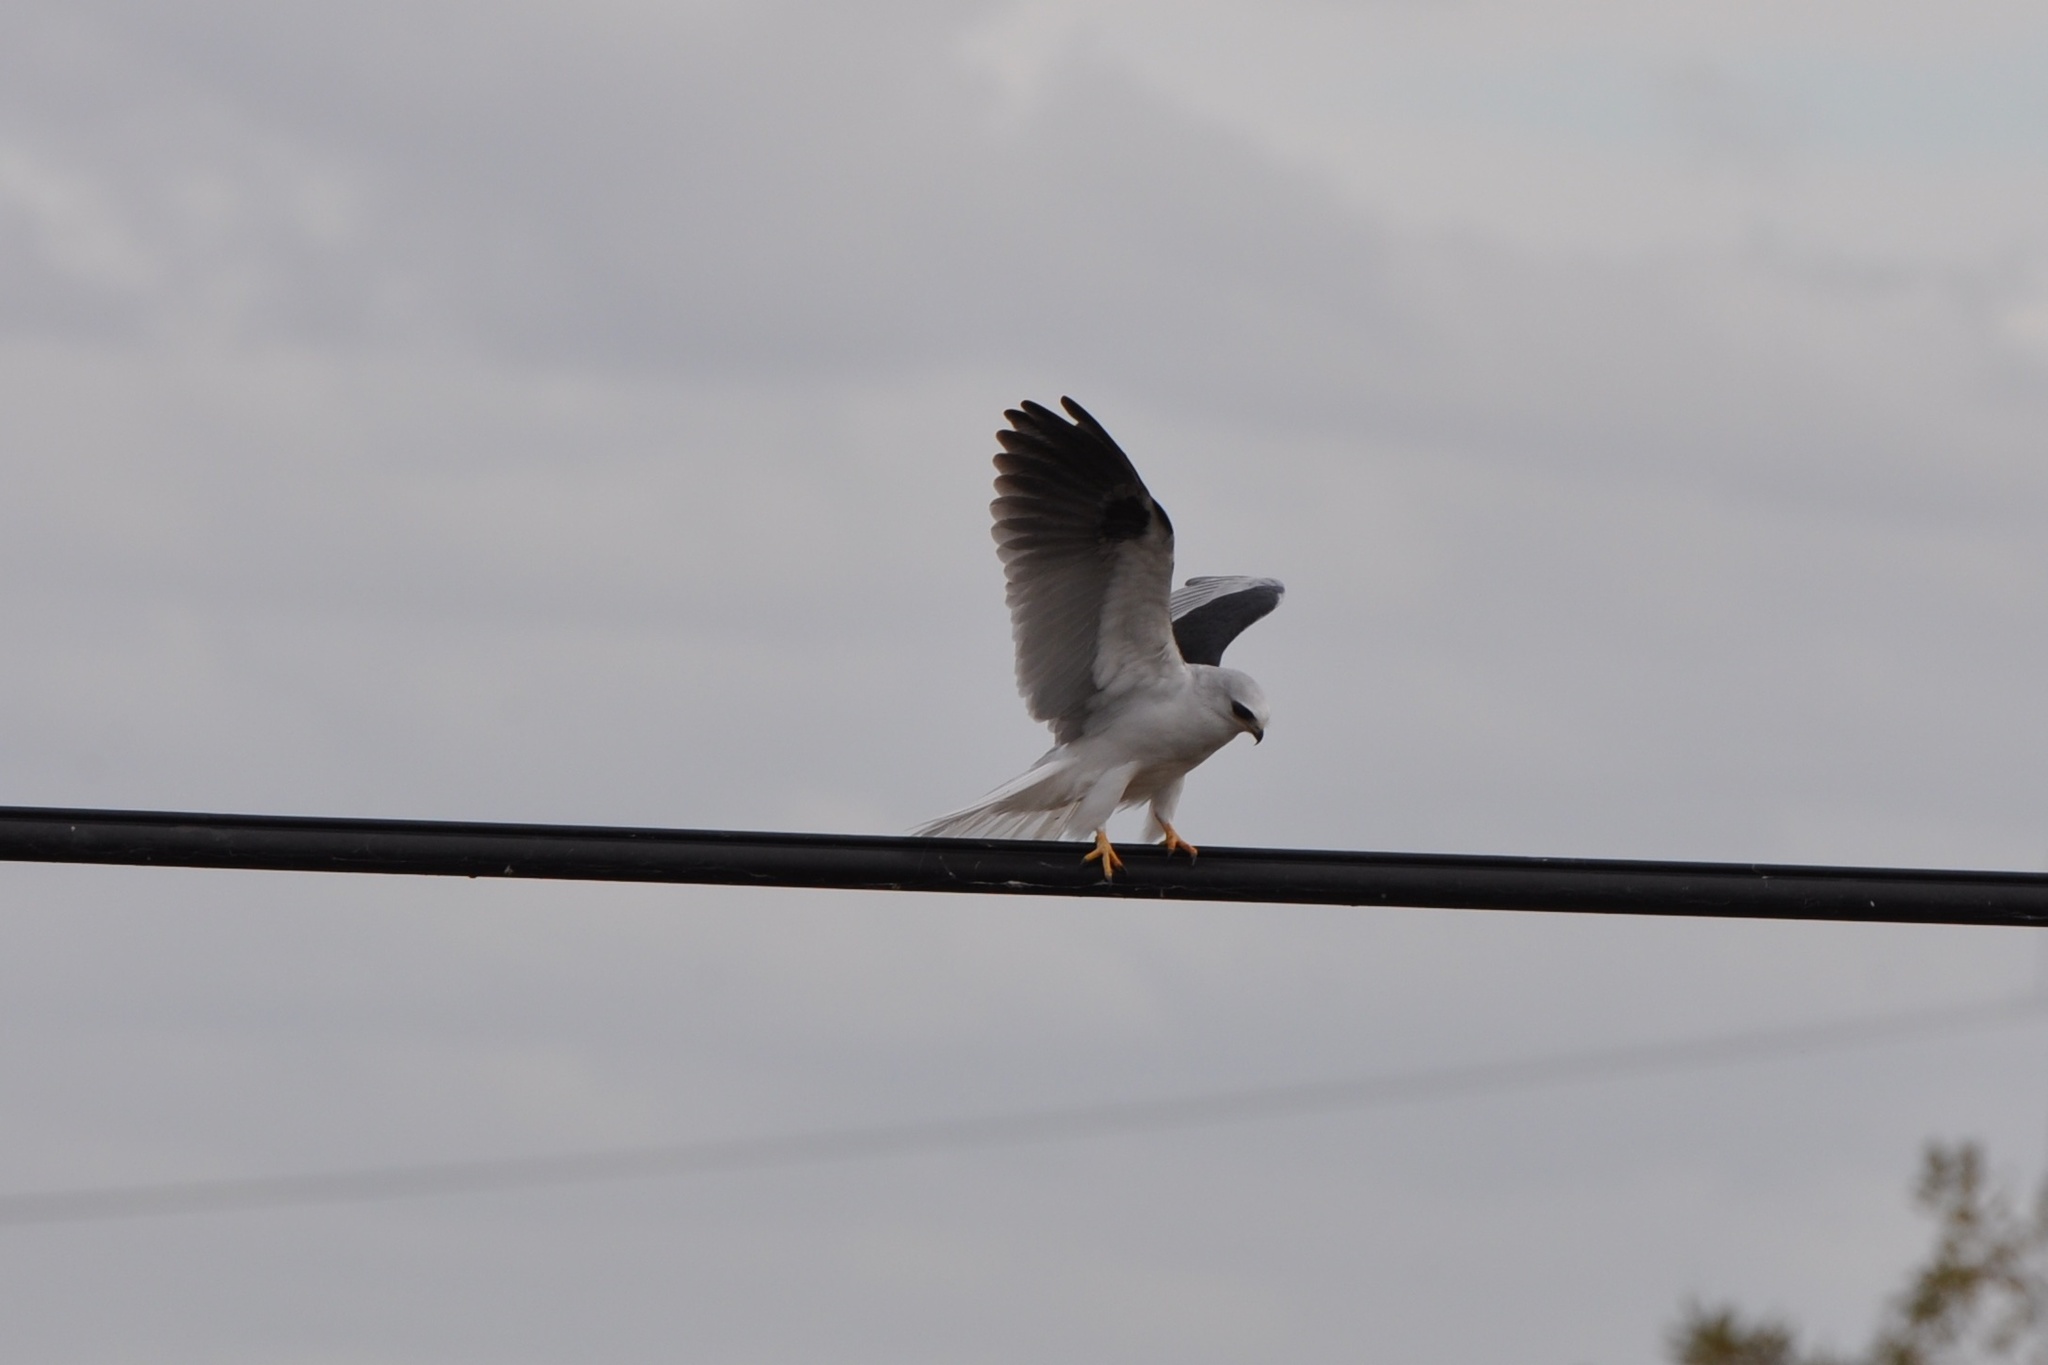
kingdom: Animalia
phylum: Chordata
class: Aves
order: Accipitriformes
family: Accipitridae
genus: Elanus
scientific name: Elanus leucurus
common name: White-tailed kite
